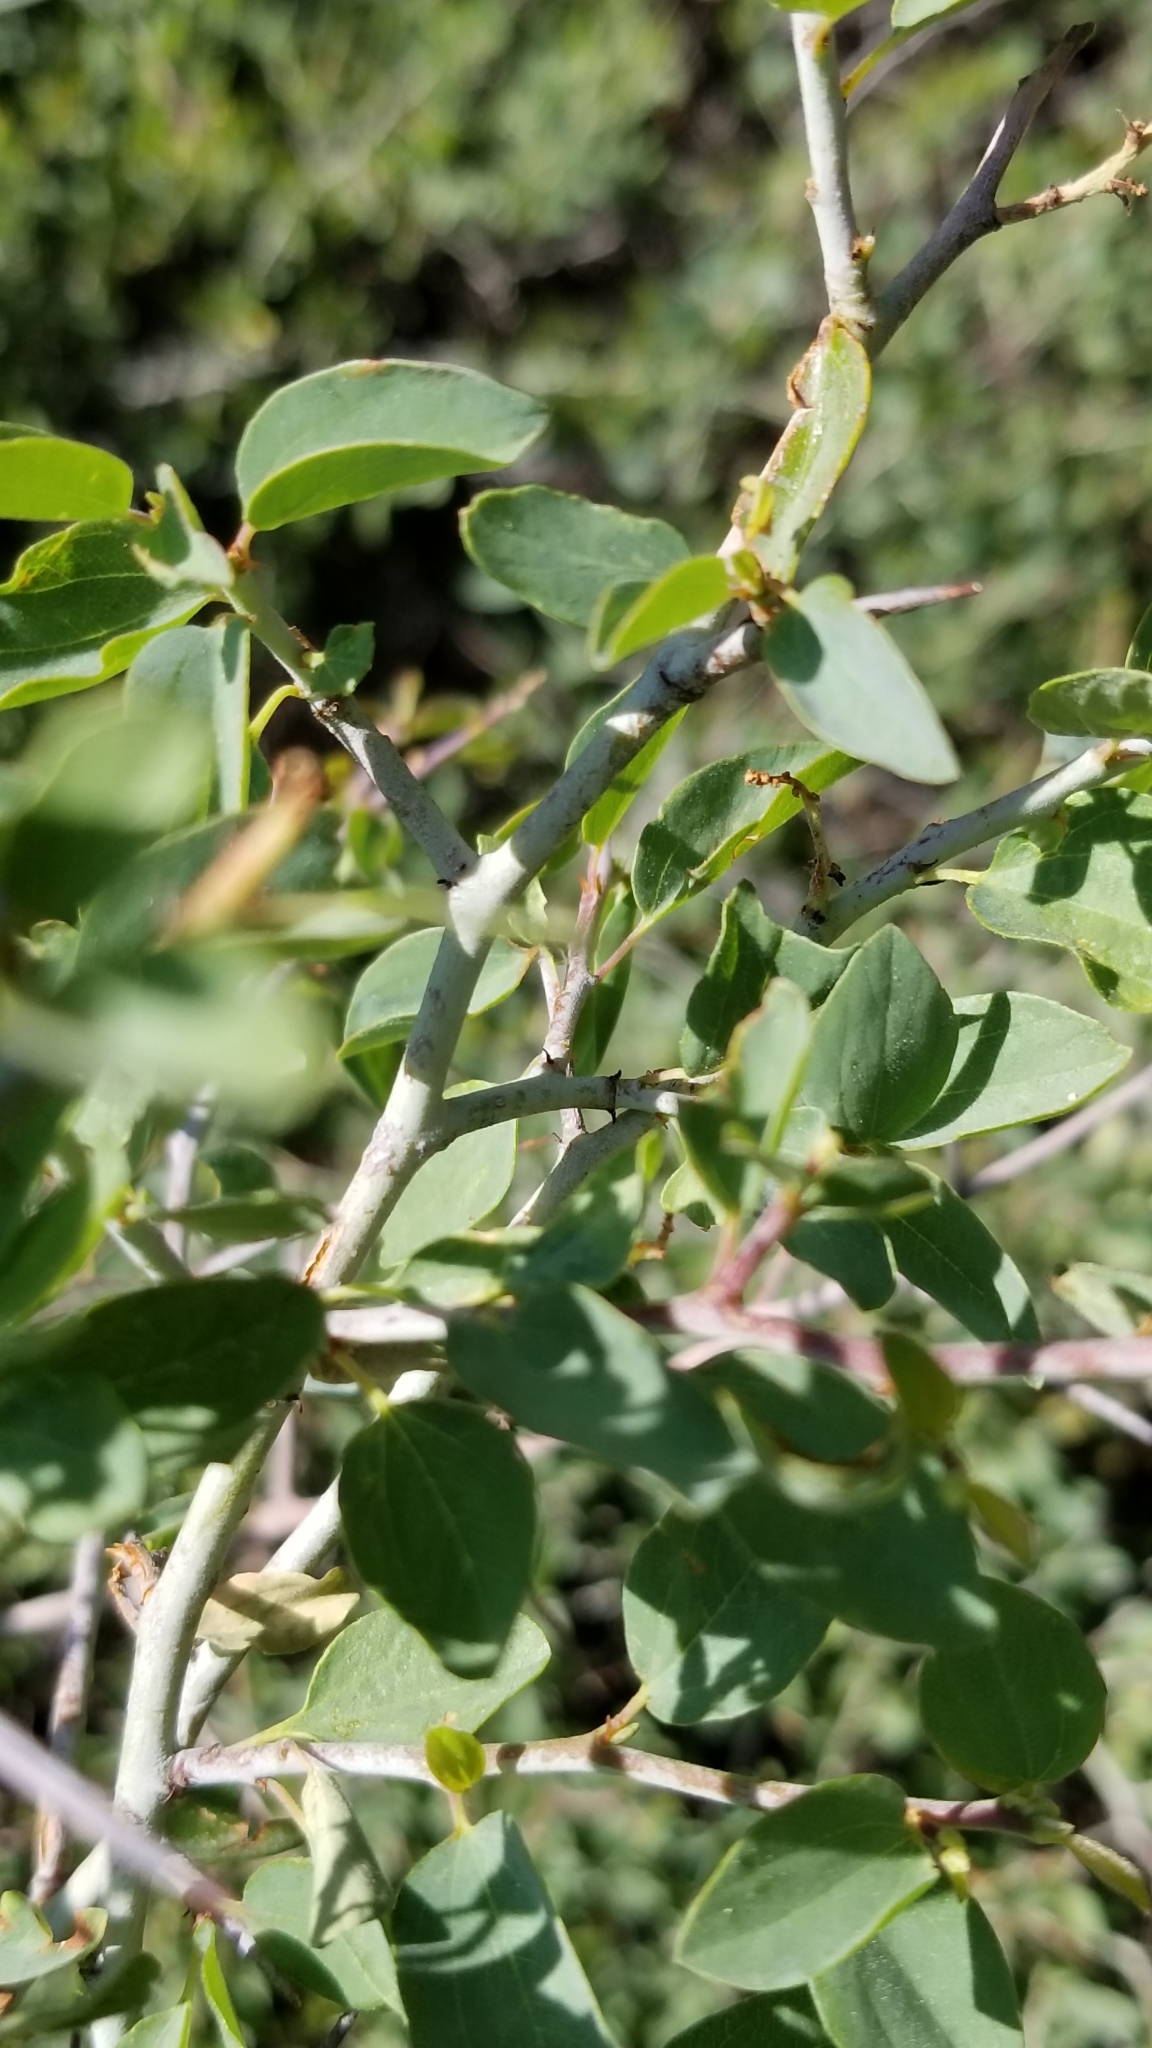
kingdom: Plantae
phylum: Tracheophyta
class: Magnoliopsida
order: Rosales
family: Rhamnaceae
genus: Ceanothus
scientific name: Ceanothus cordulatus
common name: Mountain whitethorn
